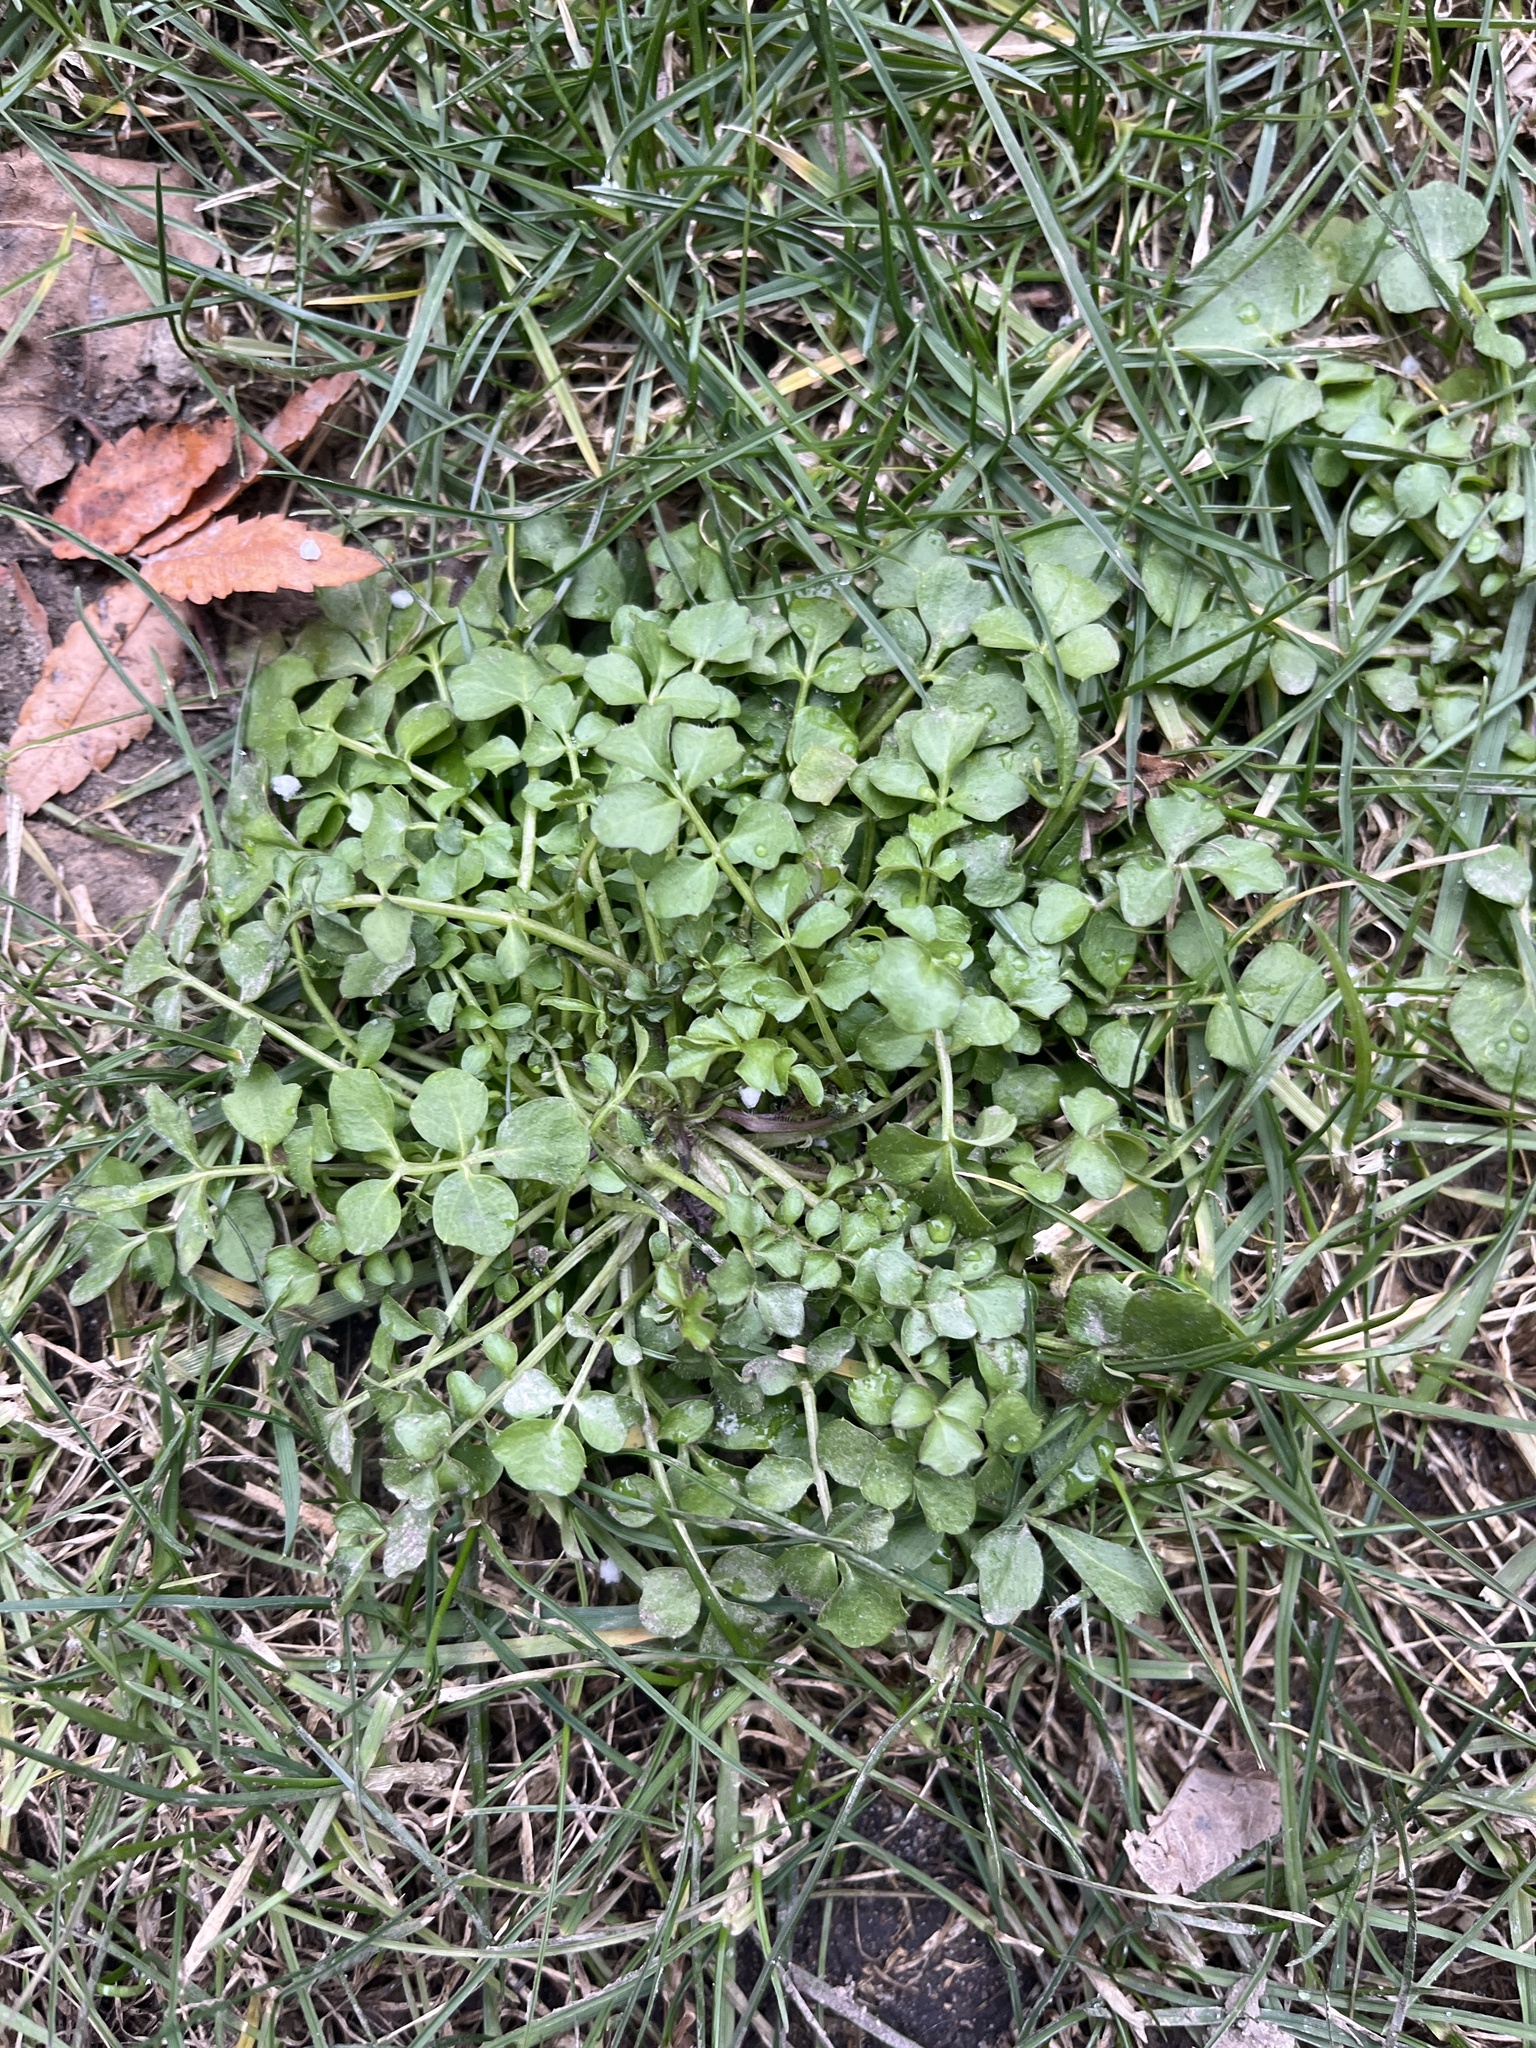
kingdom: Plantae
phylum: Tracheophyta
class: Magnoliopsida
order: Brassicales
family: Brassicaceae
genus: Cardamine
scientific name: Cardamine hirsuta
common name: Hairy bittercress
